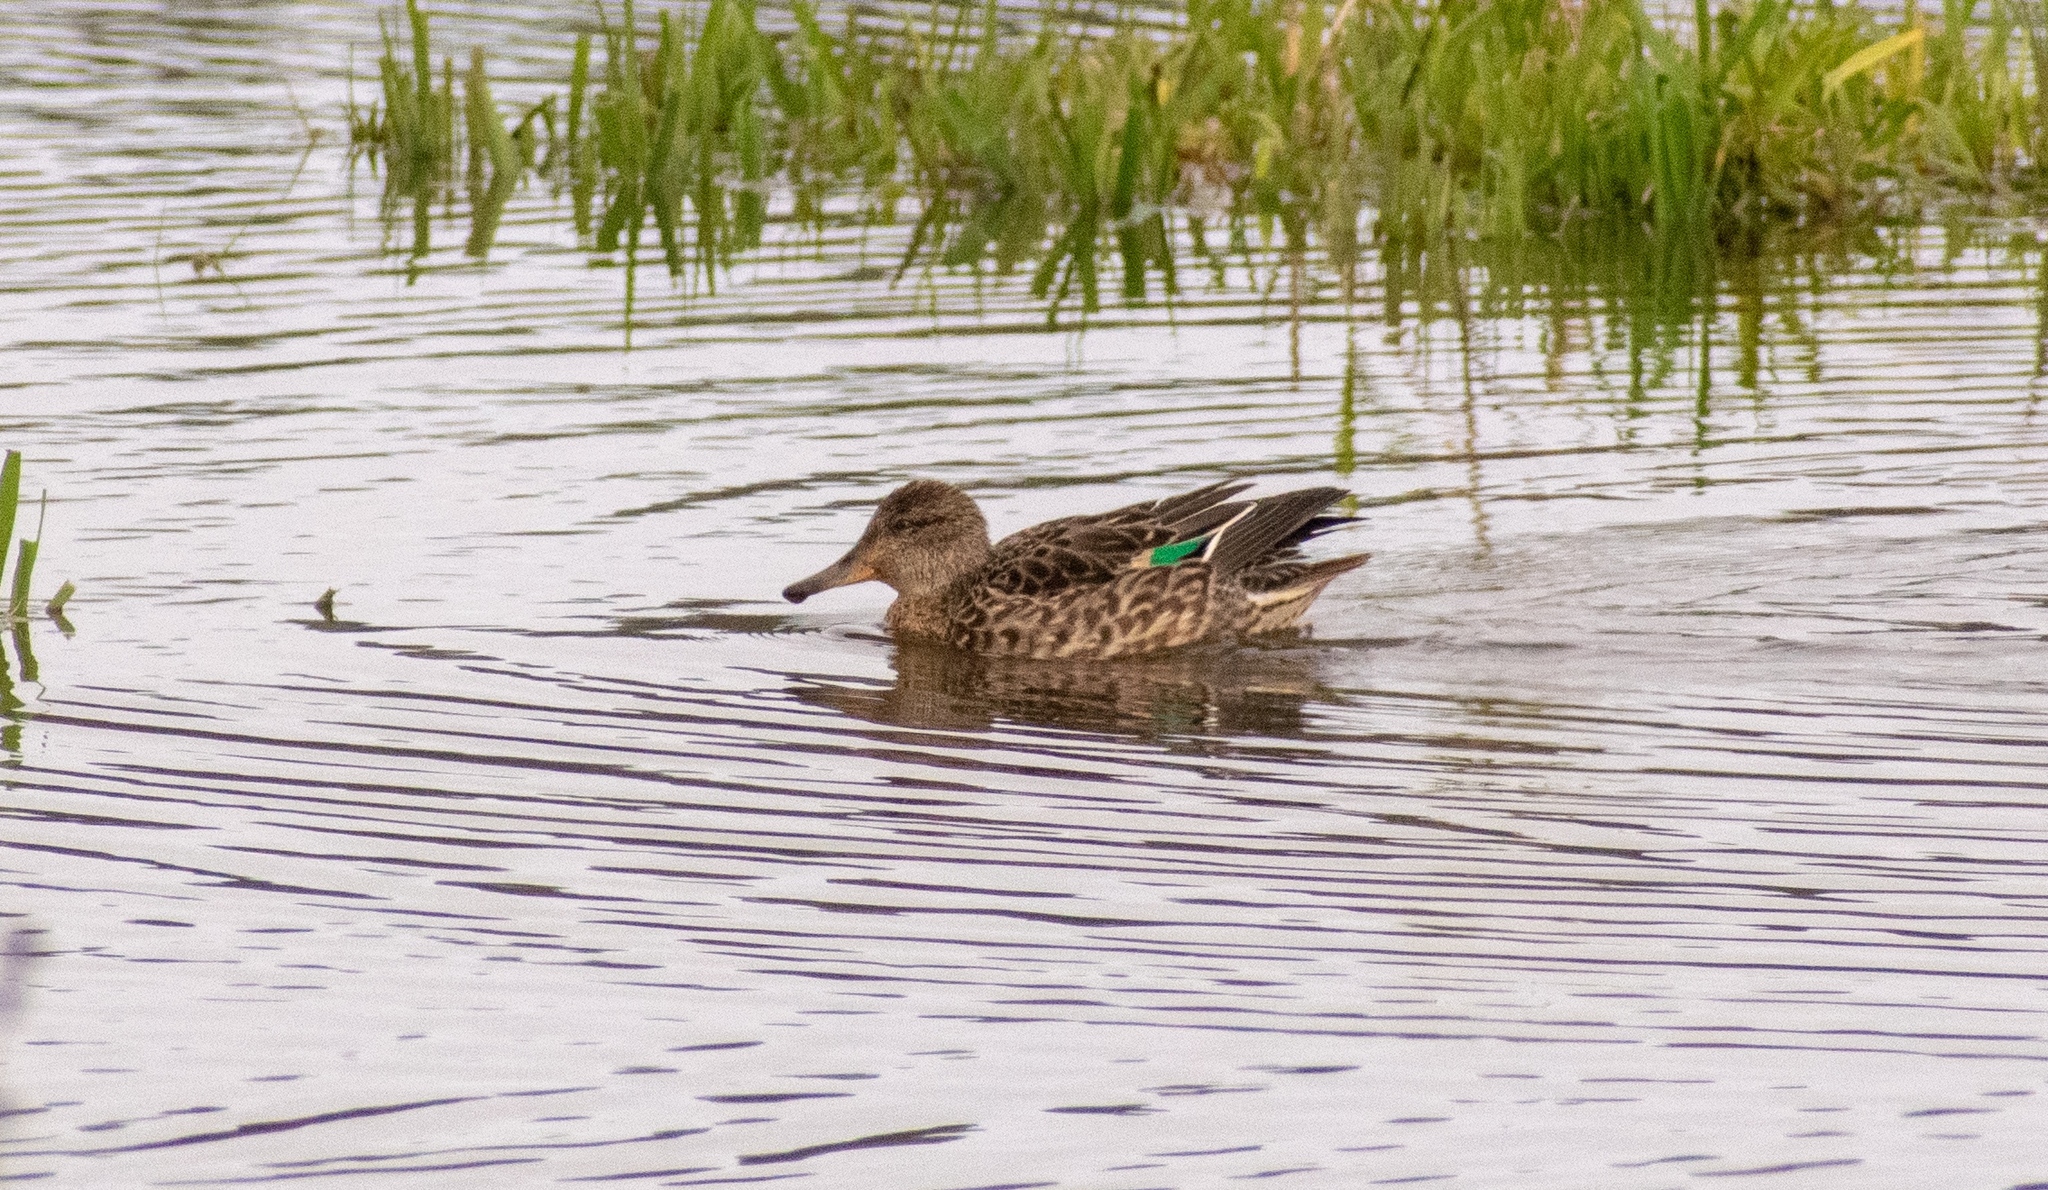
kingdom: Animalia
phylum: Chordata
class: Aves
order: Anseriformes
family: Anatidae
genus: Anas
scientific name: Anas crecca
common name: Eurasian teal
